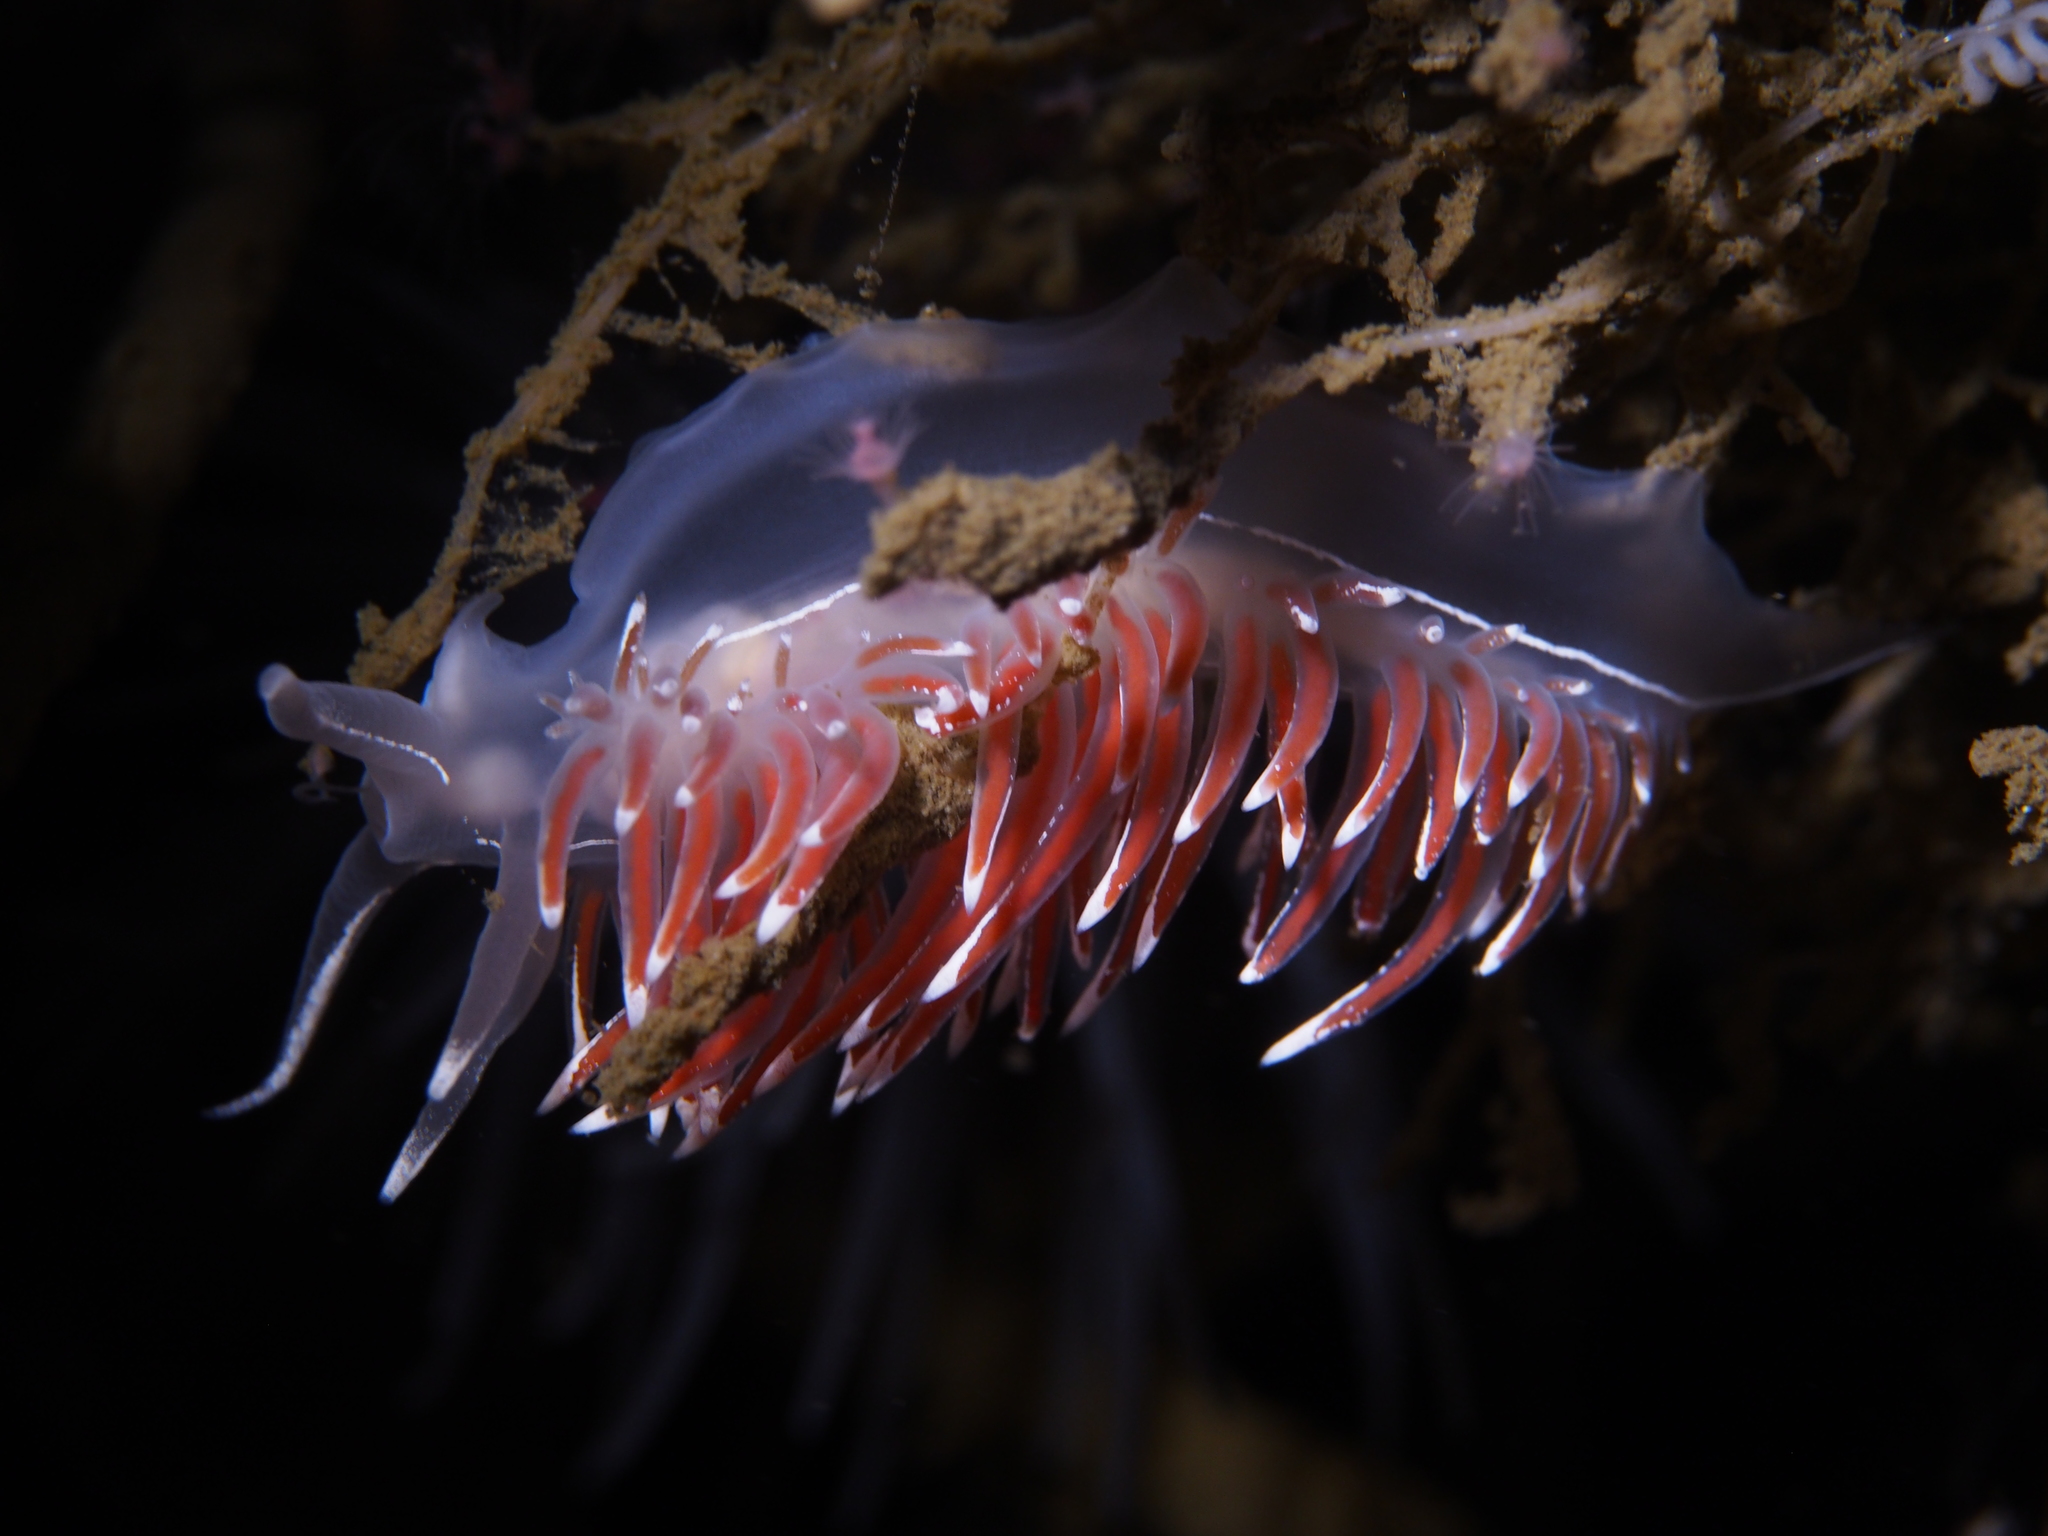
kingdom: Animalia
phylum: Mollusca
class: Gastropoda
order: Nudibranchia
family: Coryphellidae
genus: Coryphella
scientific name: Coryphella lineata
